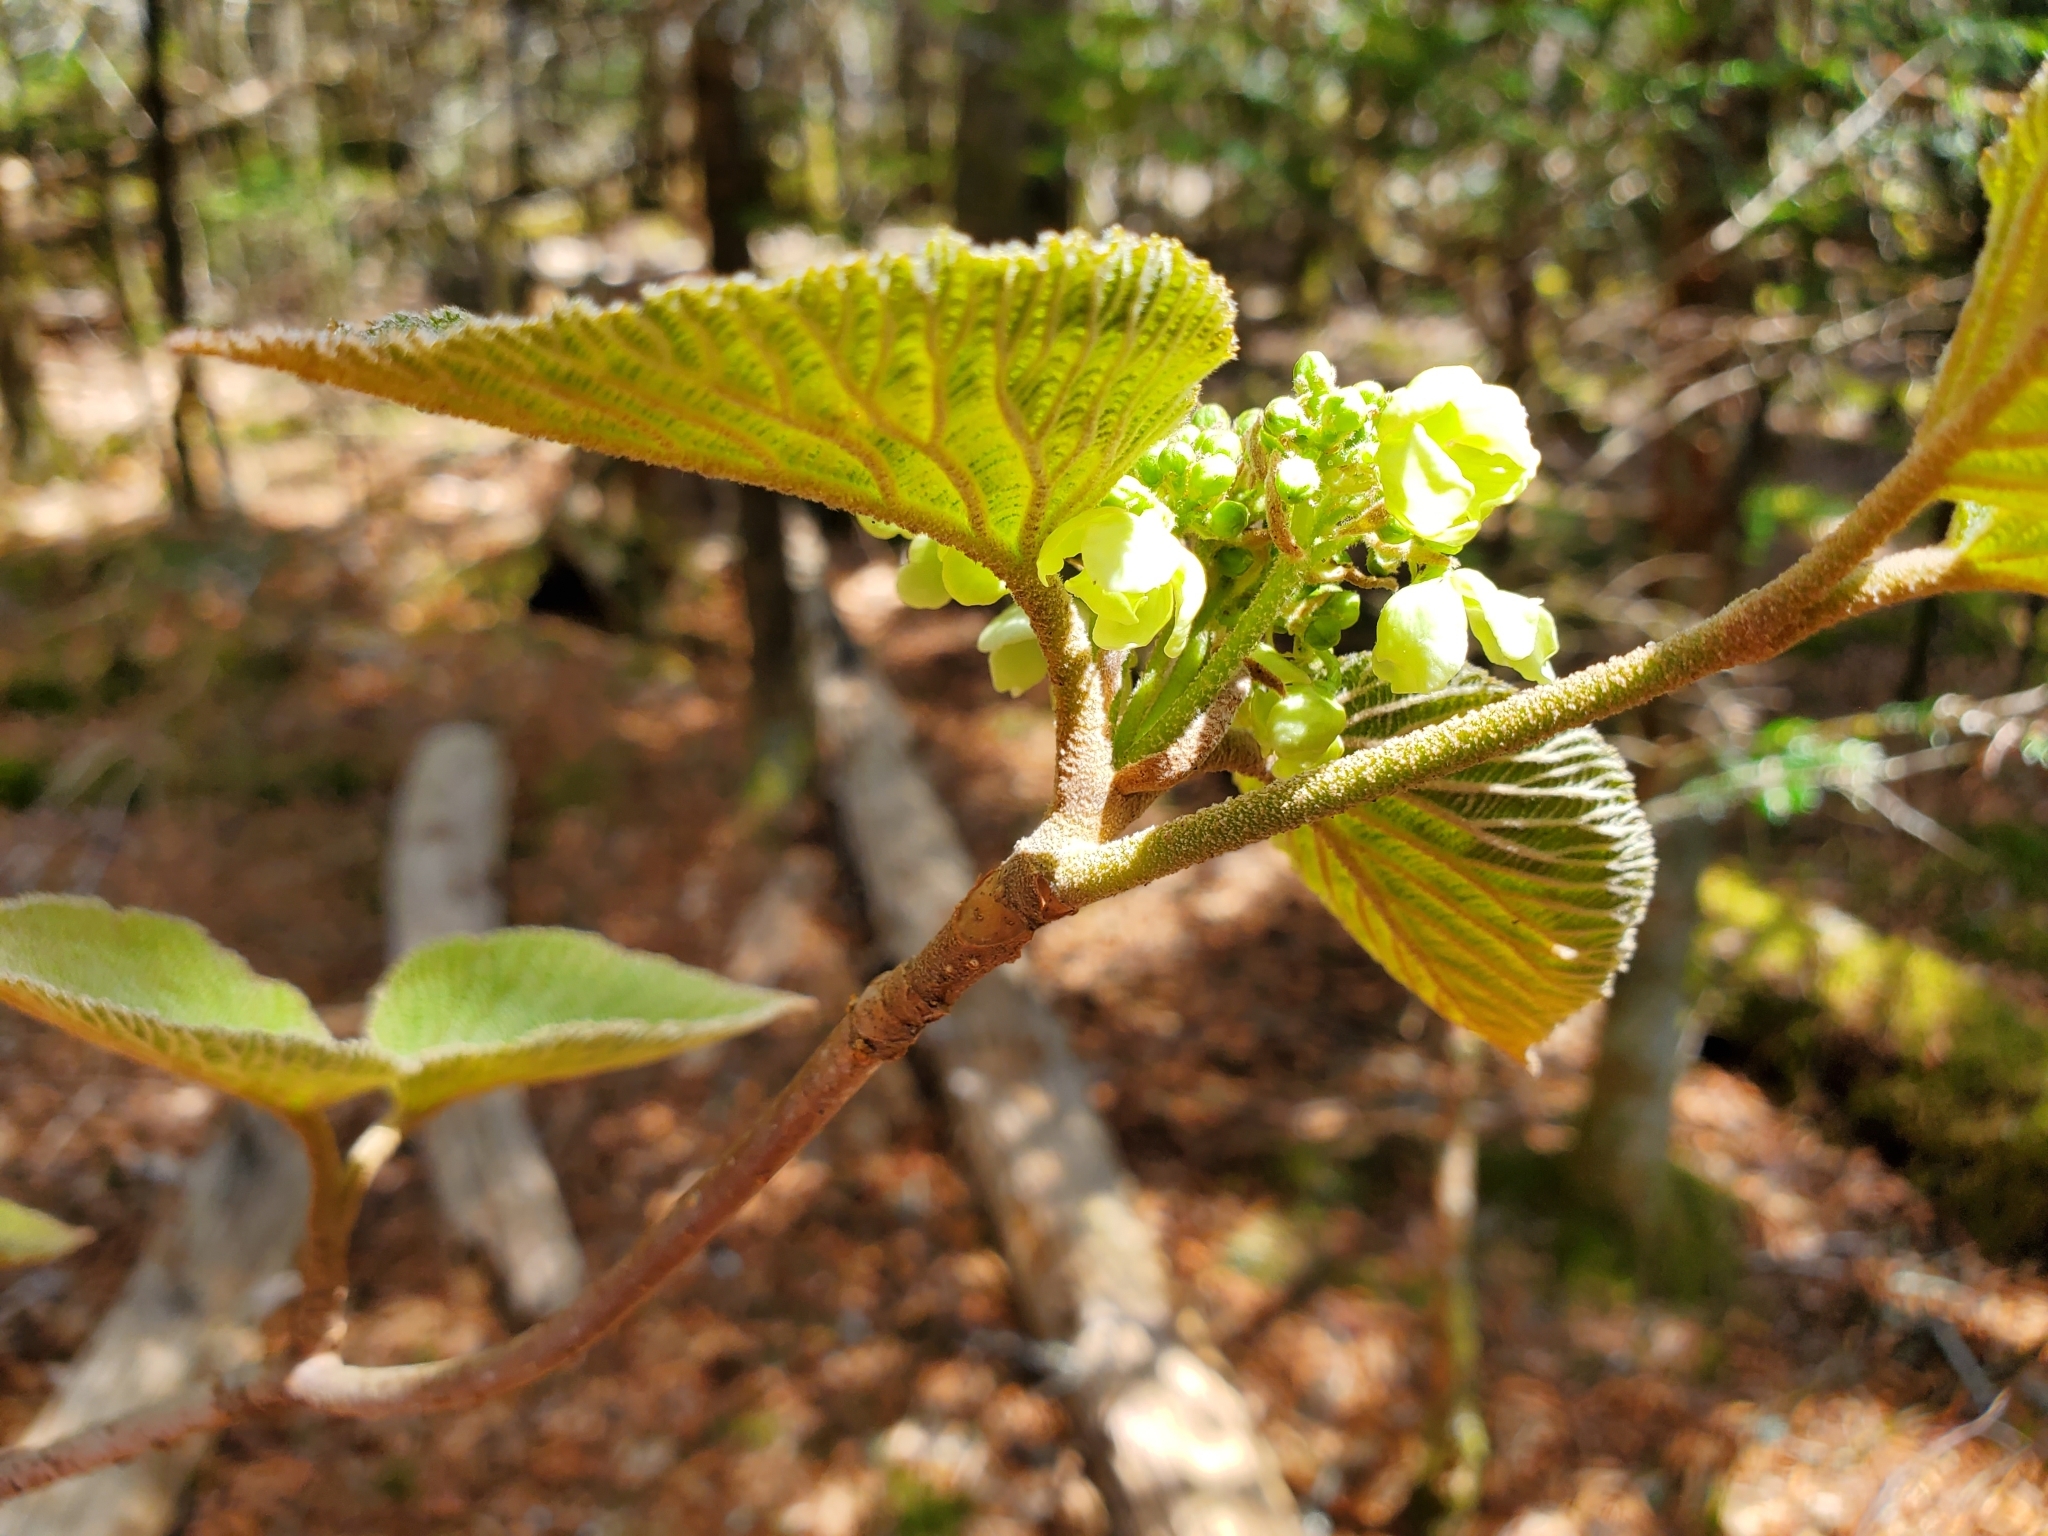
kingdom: Plantae
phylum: Tracheophyta
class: Magnoliopsida
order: Dipsacales
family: Viburnaceae
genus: Viburnum
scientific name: Viburnum lantanoides
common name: Hobblebush
